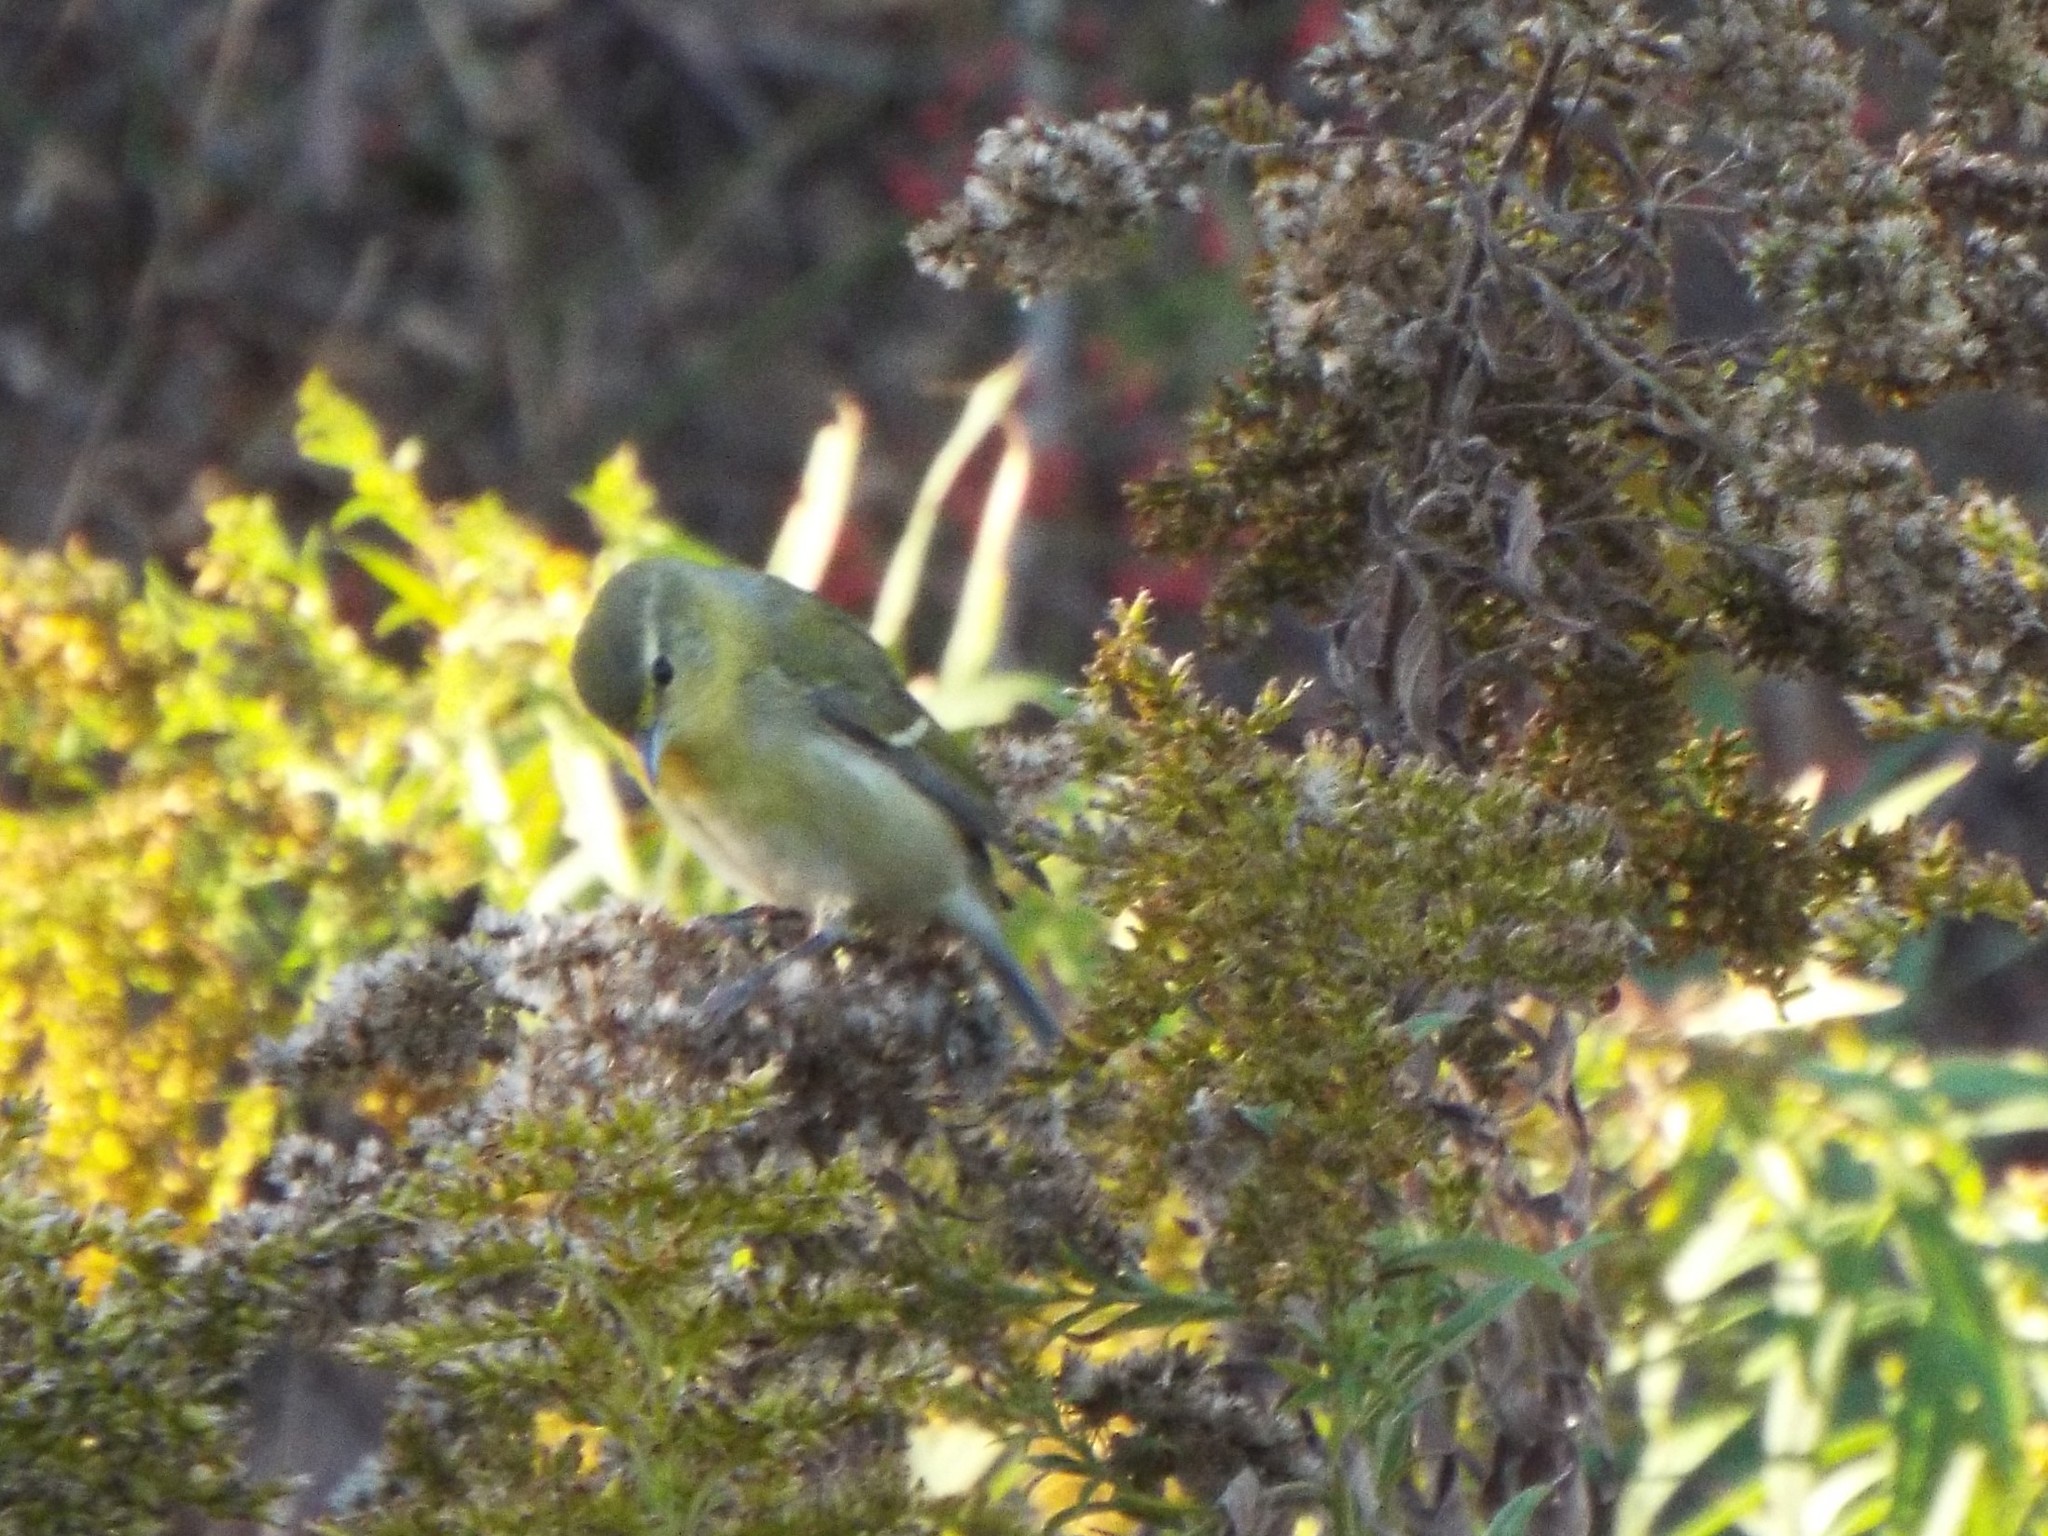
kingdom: Animalia
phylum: Chordata
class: Aves
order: Passeriformes
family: Parulidae
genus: Leiothlypis
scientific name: Leiothlypis peregrina
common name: Tennessee warbler
